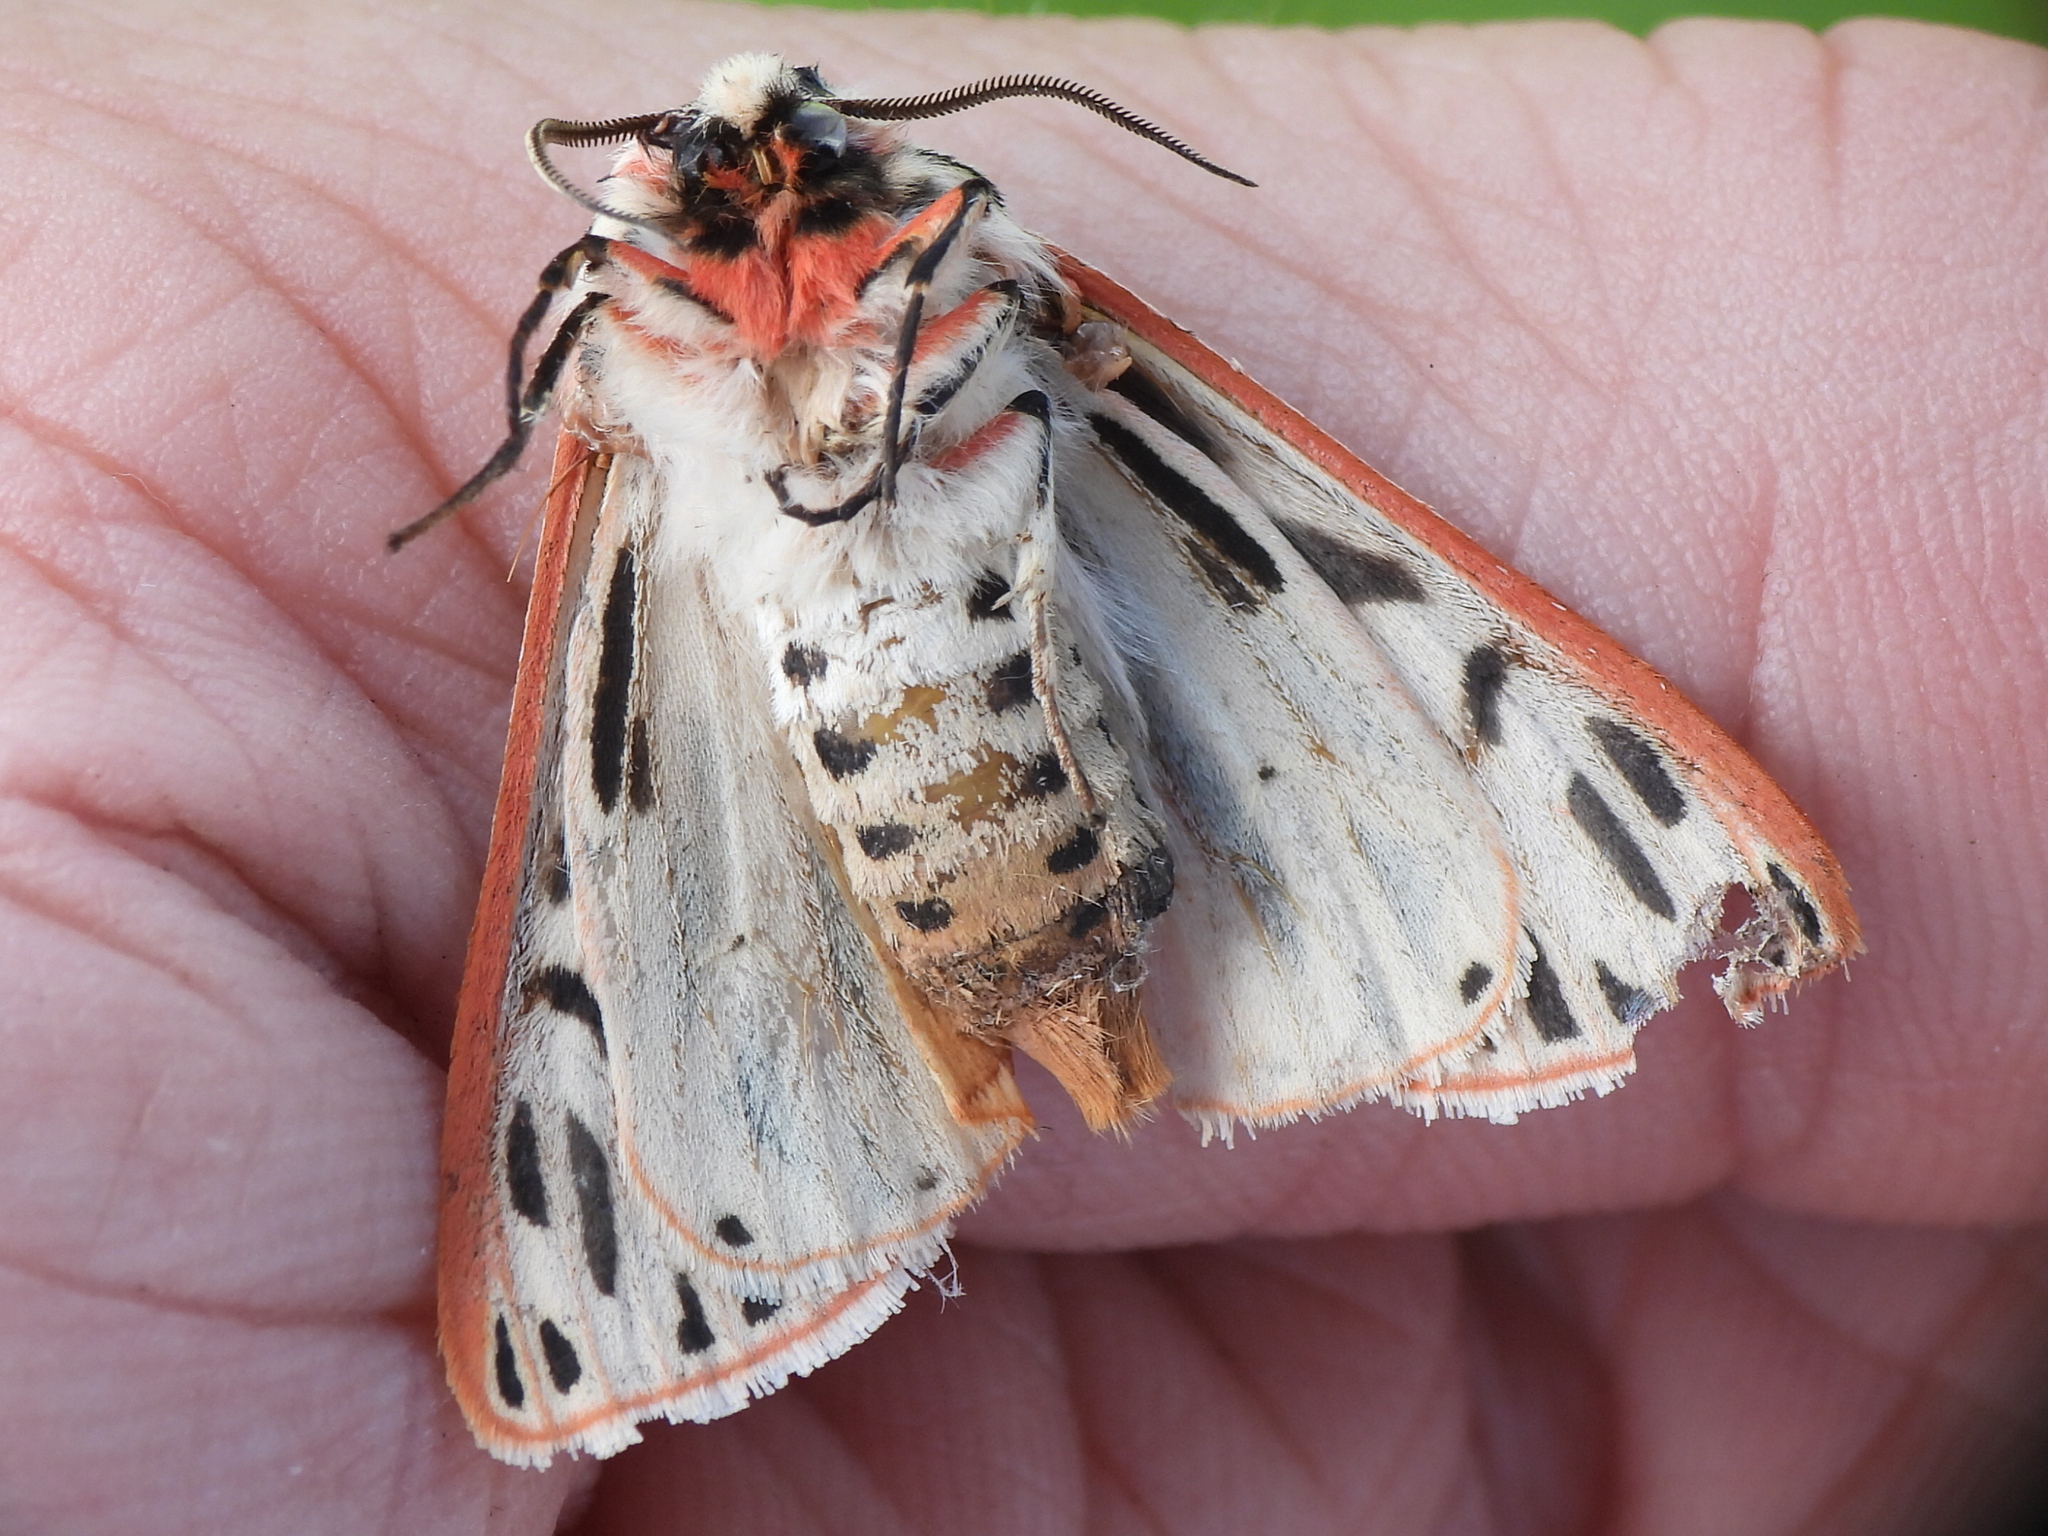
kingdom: Animalia
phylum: Arthropoda
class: Insecta
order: Lepidoptera
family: Erebidae
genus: Apantesis
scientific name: Apantesis arge
